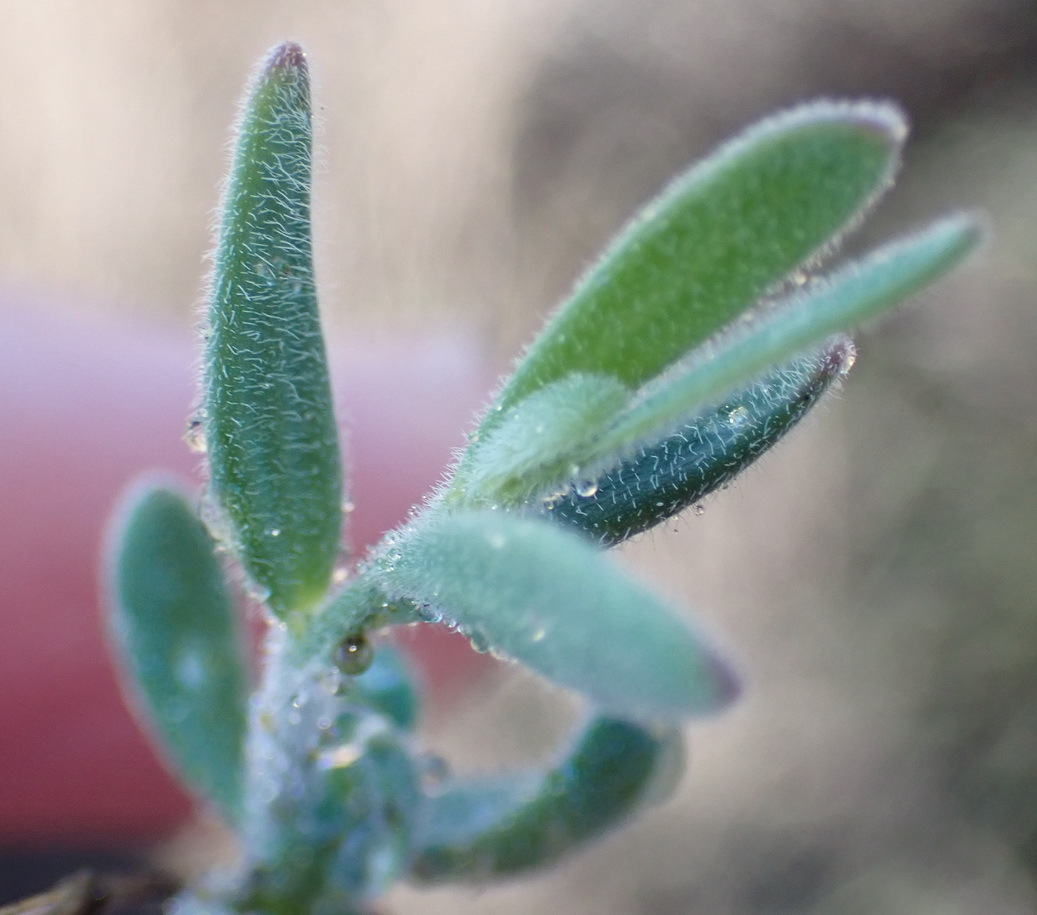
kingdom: Plantae
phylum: Tracheophyta
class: Magnoliopsida
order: Brassicales
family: Brassicaceae
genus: Heliophila
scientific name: Heliophila linearis
